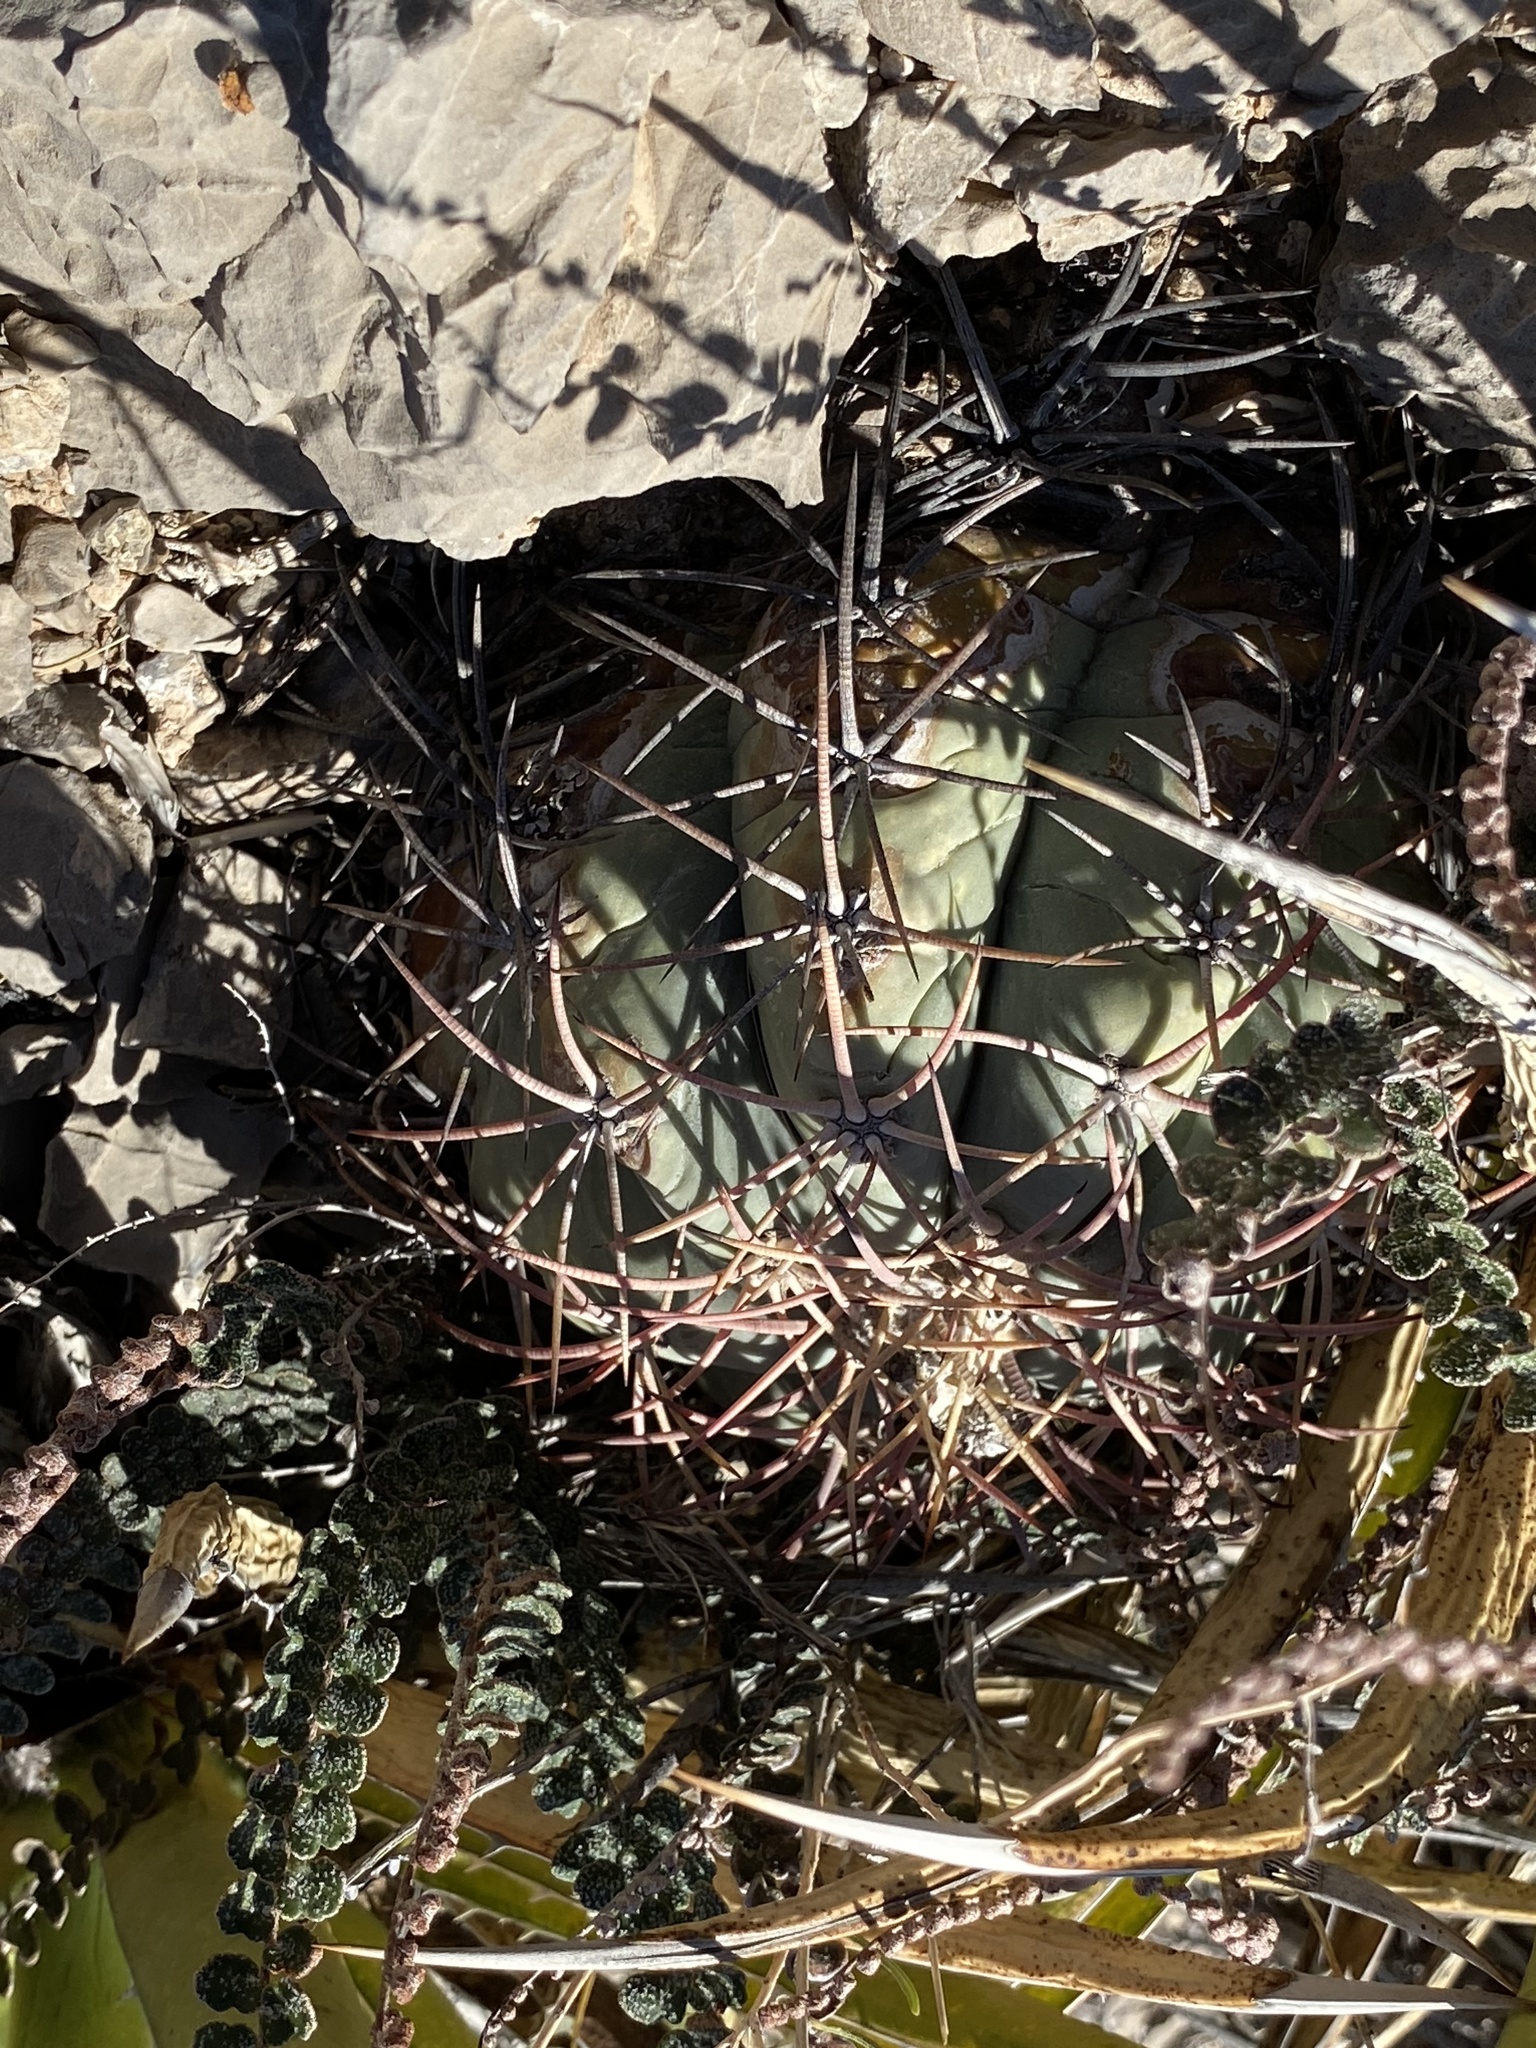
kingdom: Plantae
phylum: Tracheophyta
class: Magnoliopsida
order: Caryophyllales
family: Cactaceae
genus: Echinocactus
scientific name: Echinocactus horizonthalonius
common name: Devilshead
